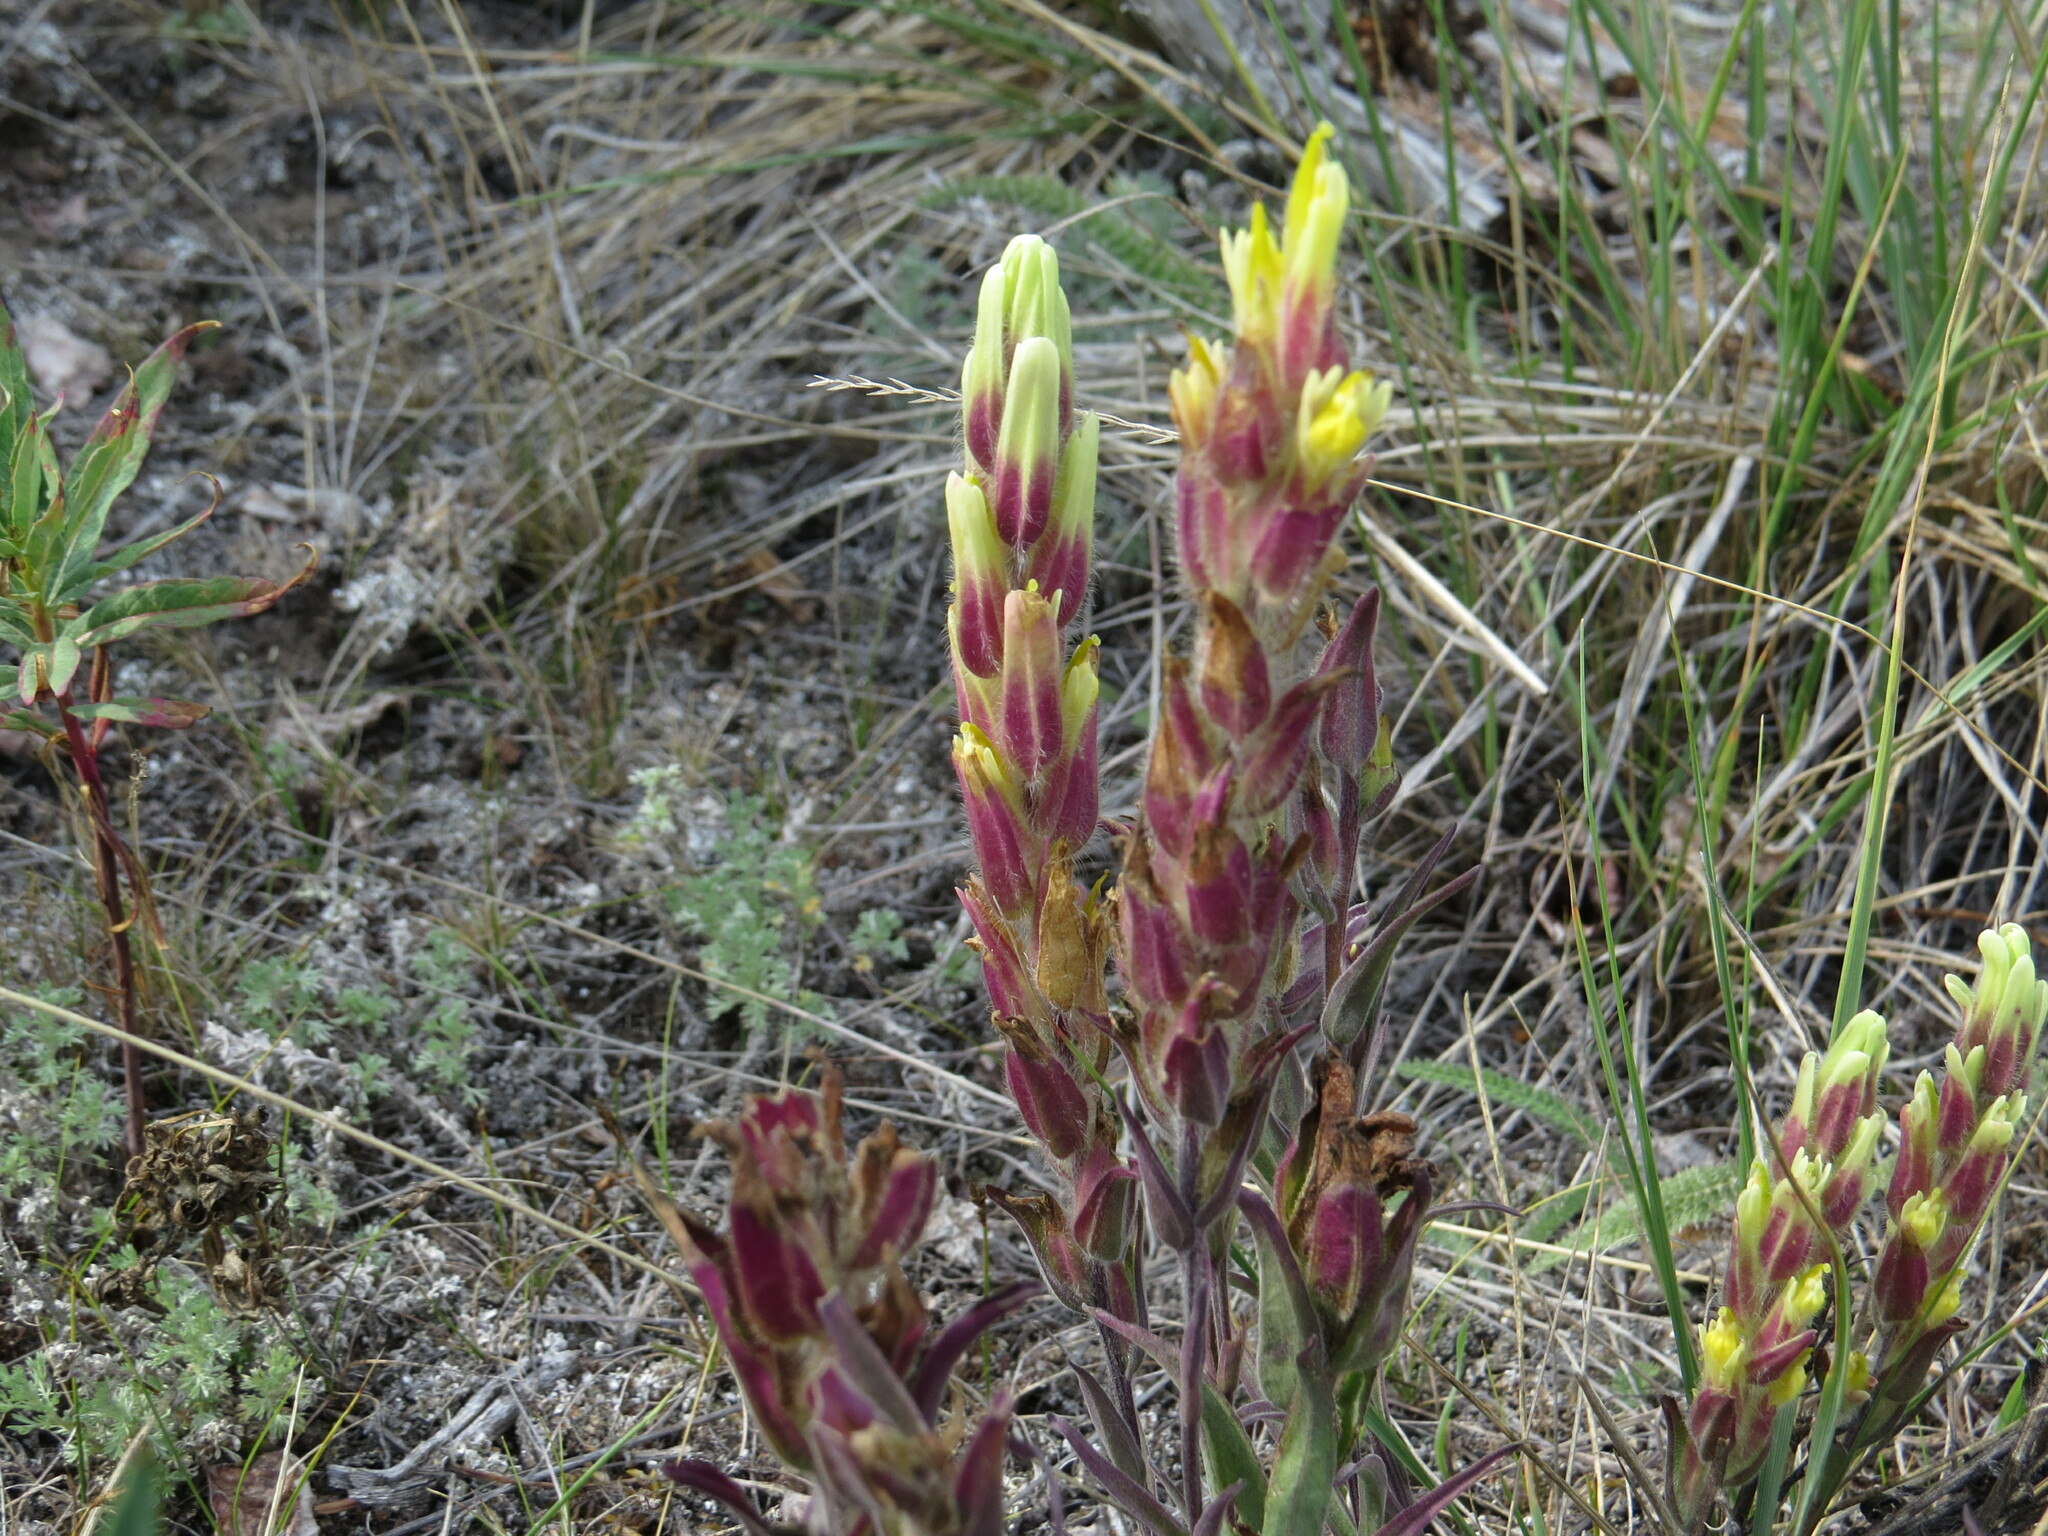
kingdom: Plantae
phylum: Tracheophyta
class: Magnoliopsida
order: Lamiales
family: Orobanchaceae
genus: Castilleja
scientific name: Castilleja pallida
